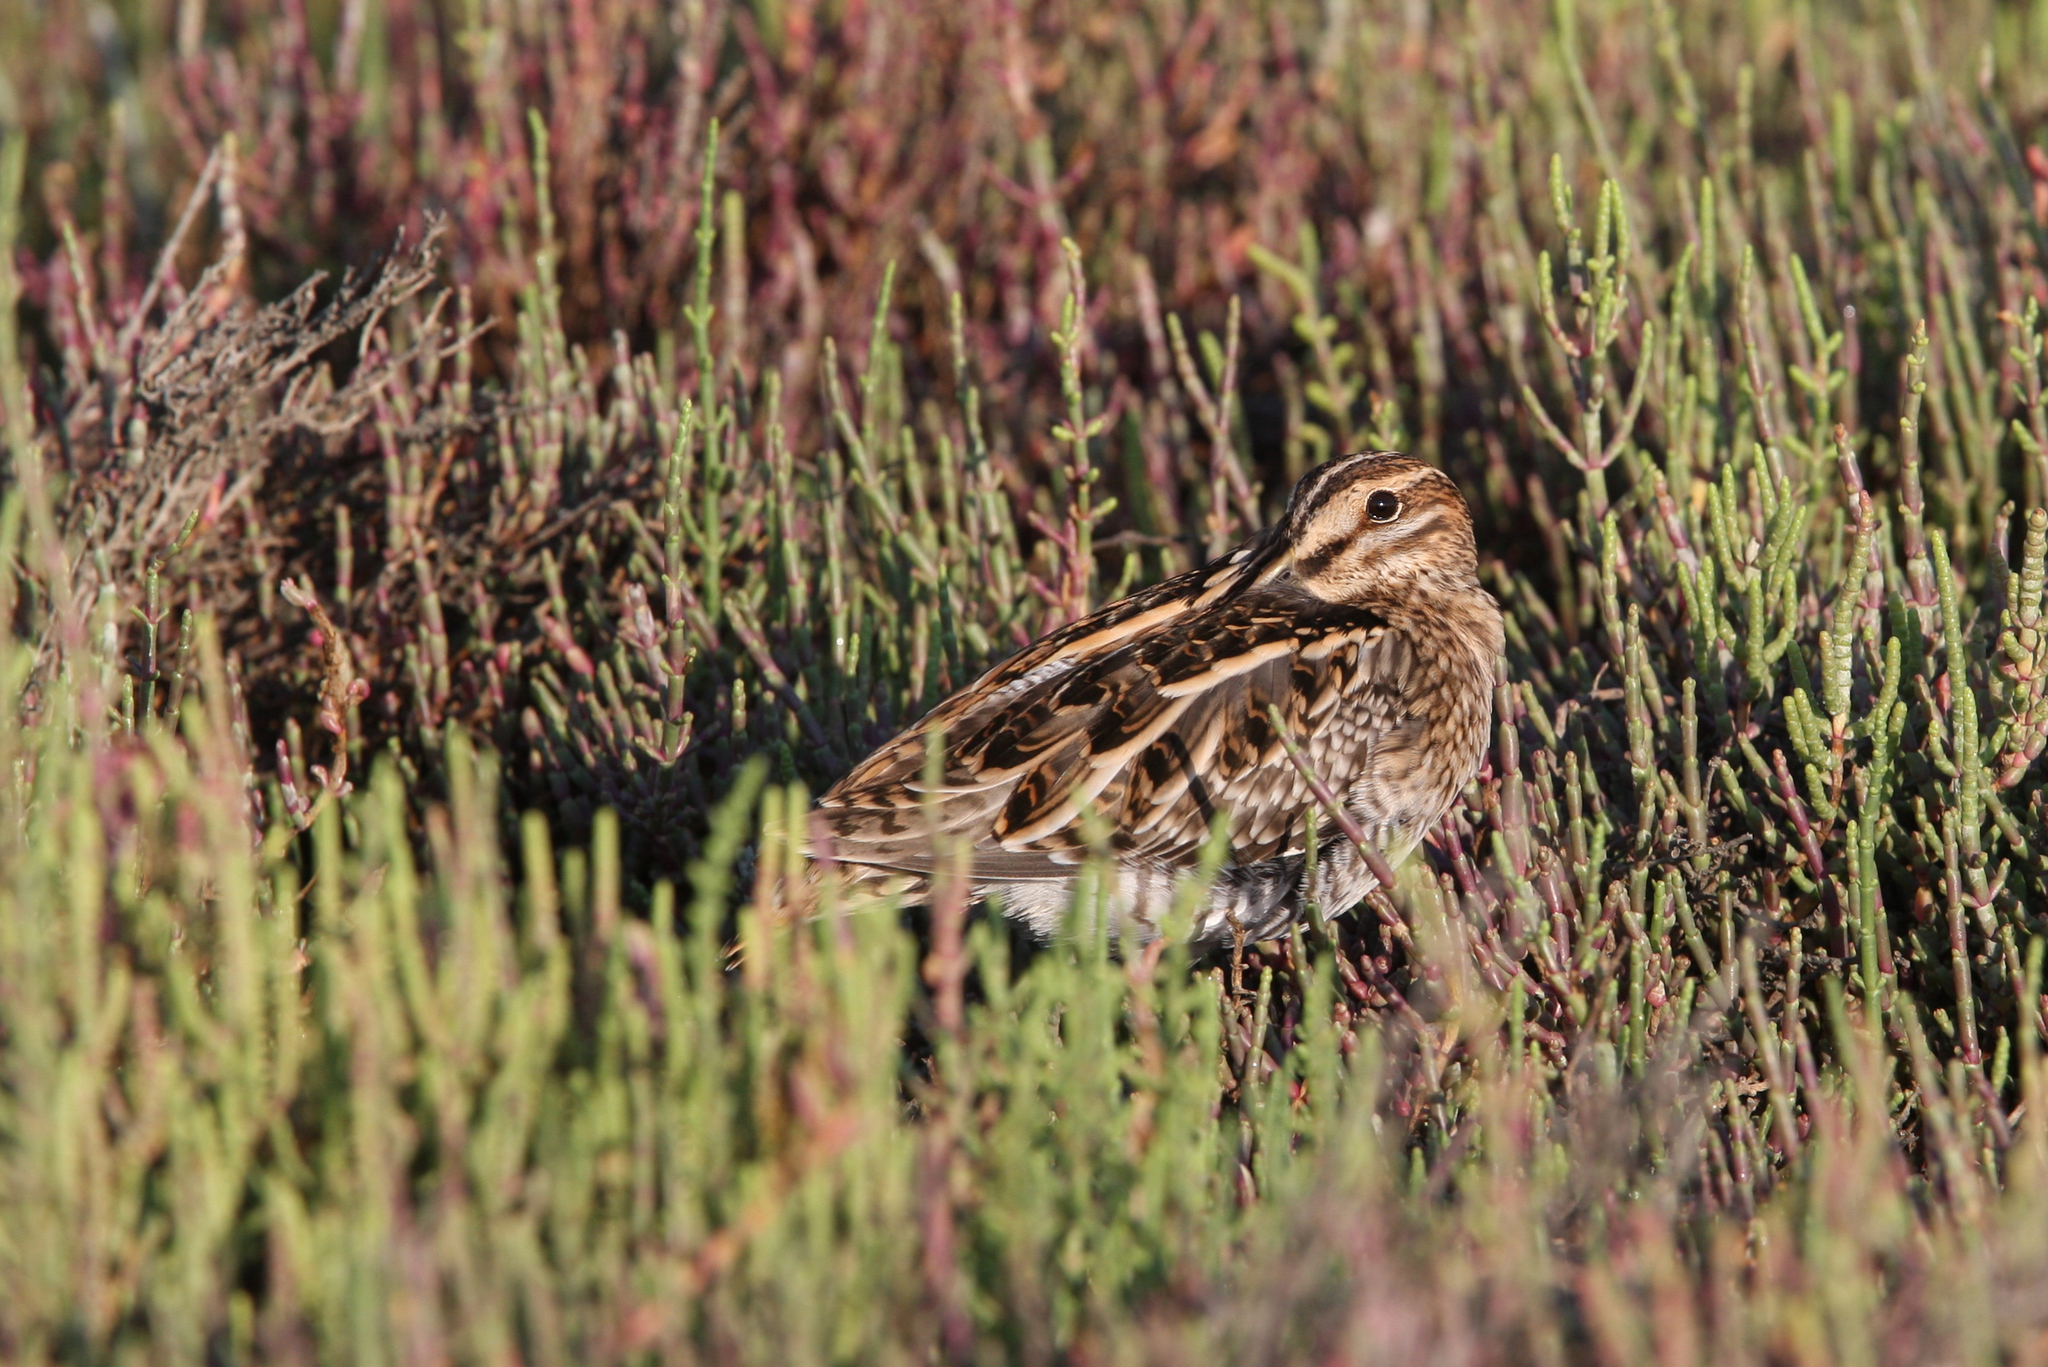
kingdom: Animalia
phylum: Chordata
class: Aves
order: Charadriiformes
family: Scolopacidae
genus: Gallinago
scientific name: Gallinago gallinago
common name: Common snipe
